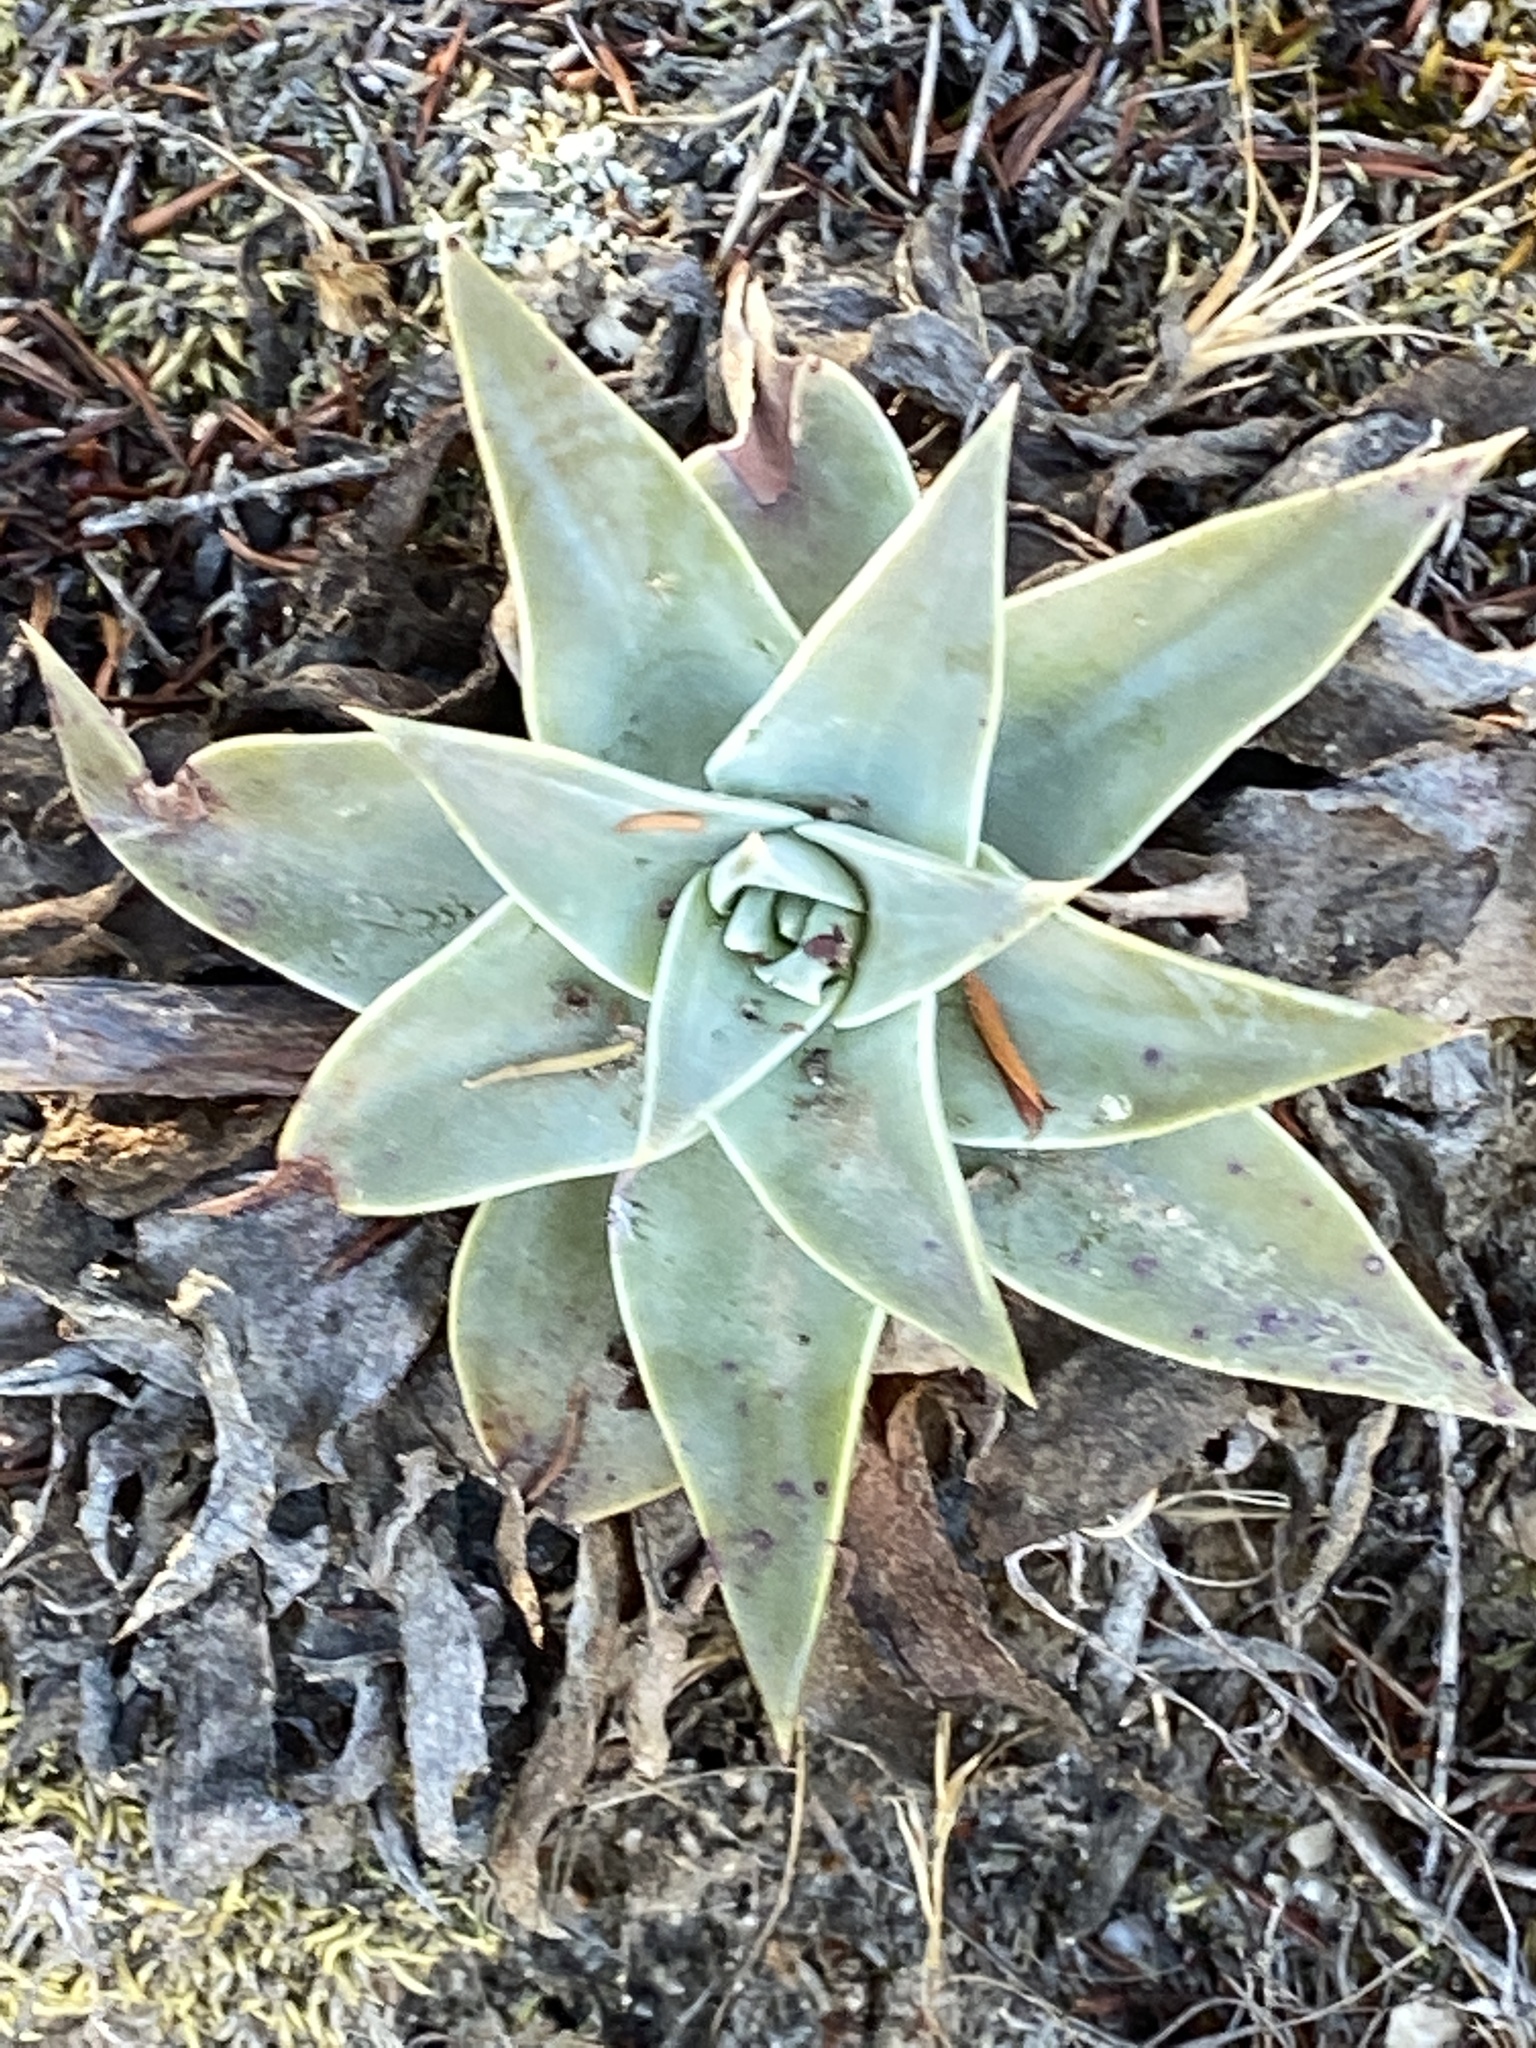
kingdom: Plantae
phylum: Tracheophyta
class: Magnoliopsida
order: Saxifragales
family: Crassulaceae
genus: Dudleya
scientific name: Dudleya lanceolata
